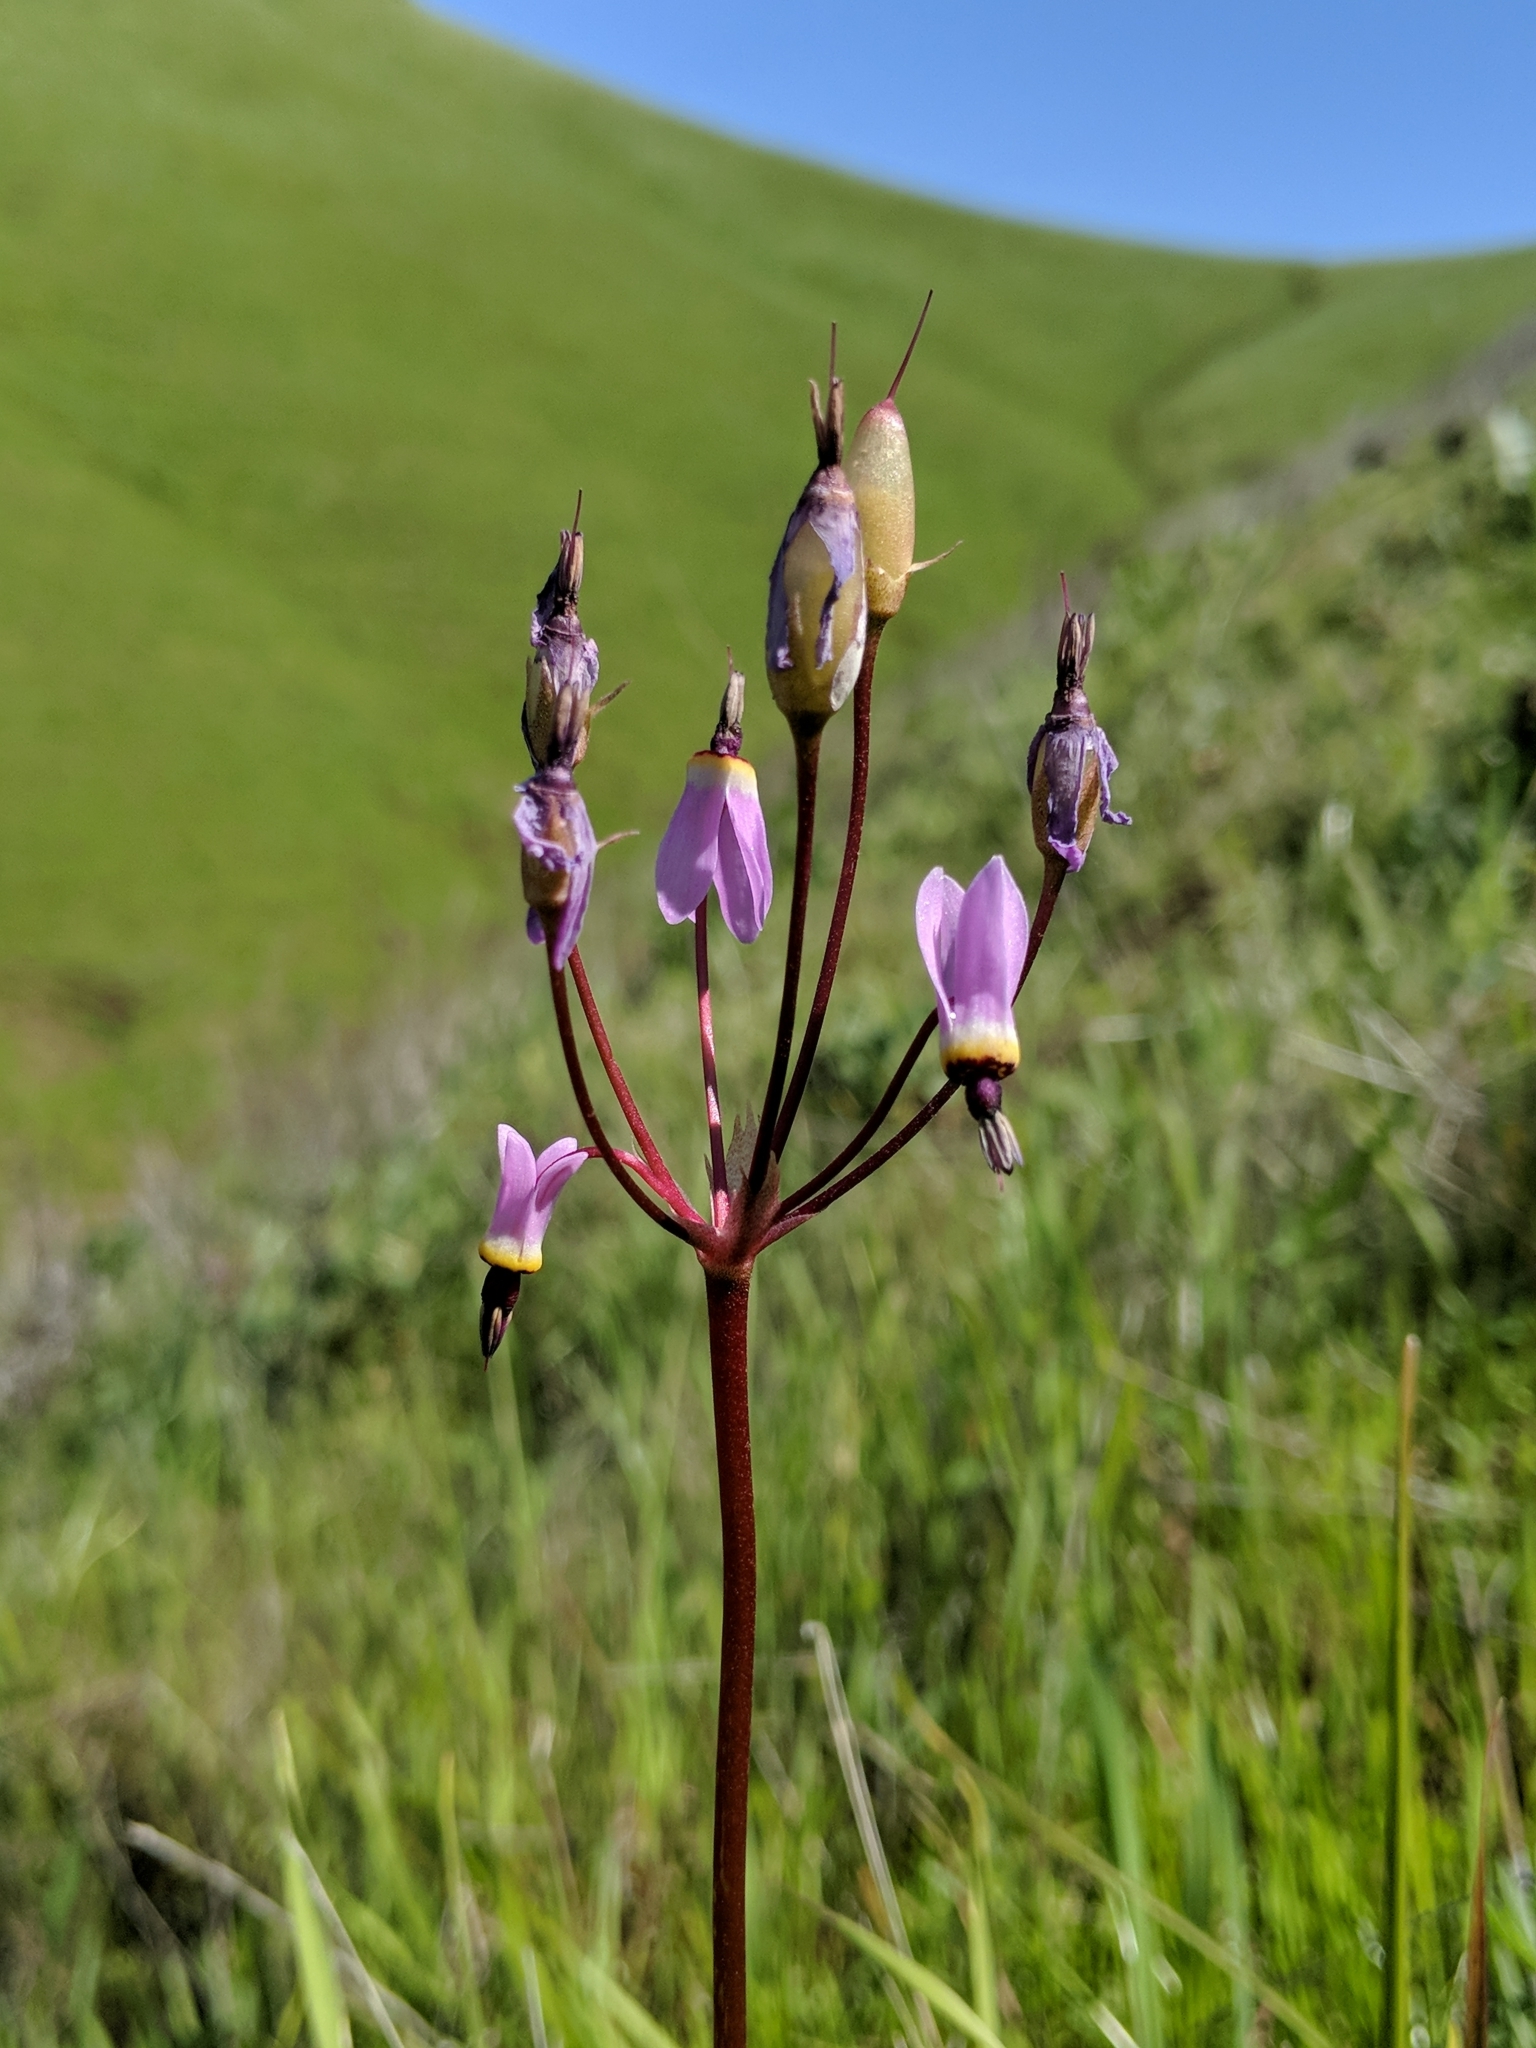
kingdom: Plantae
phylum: Tracheophyta
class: Magnoliopsida
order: Ericales
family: Primulaceae
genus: Dodecatheon
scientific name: Dodecatheon hendersonii
